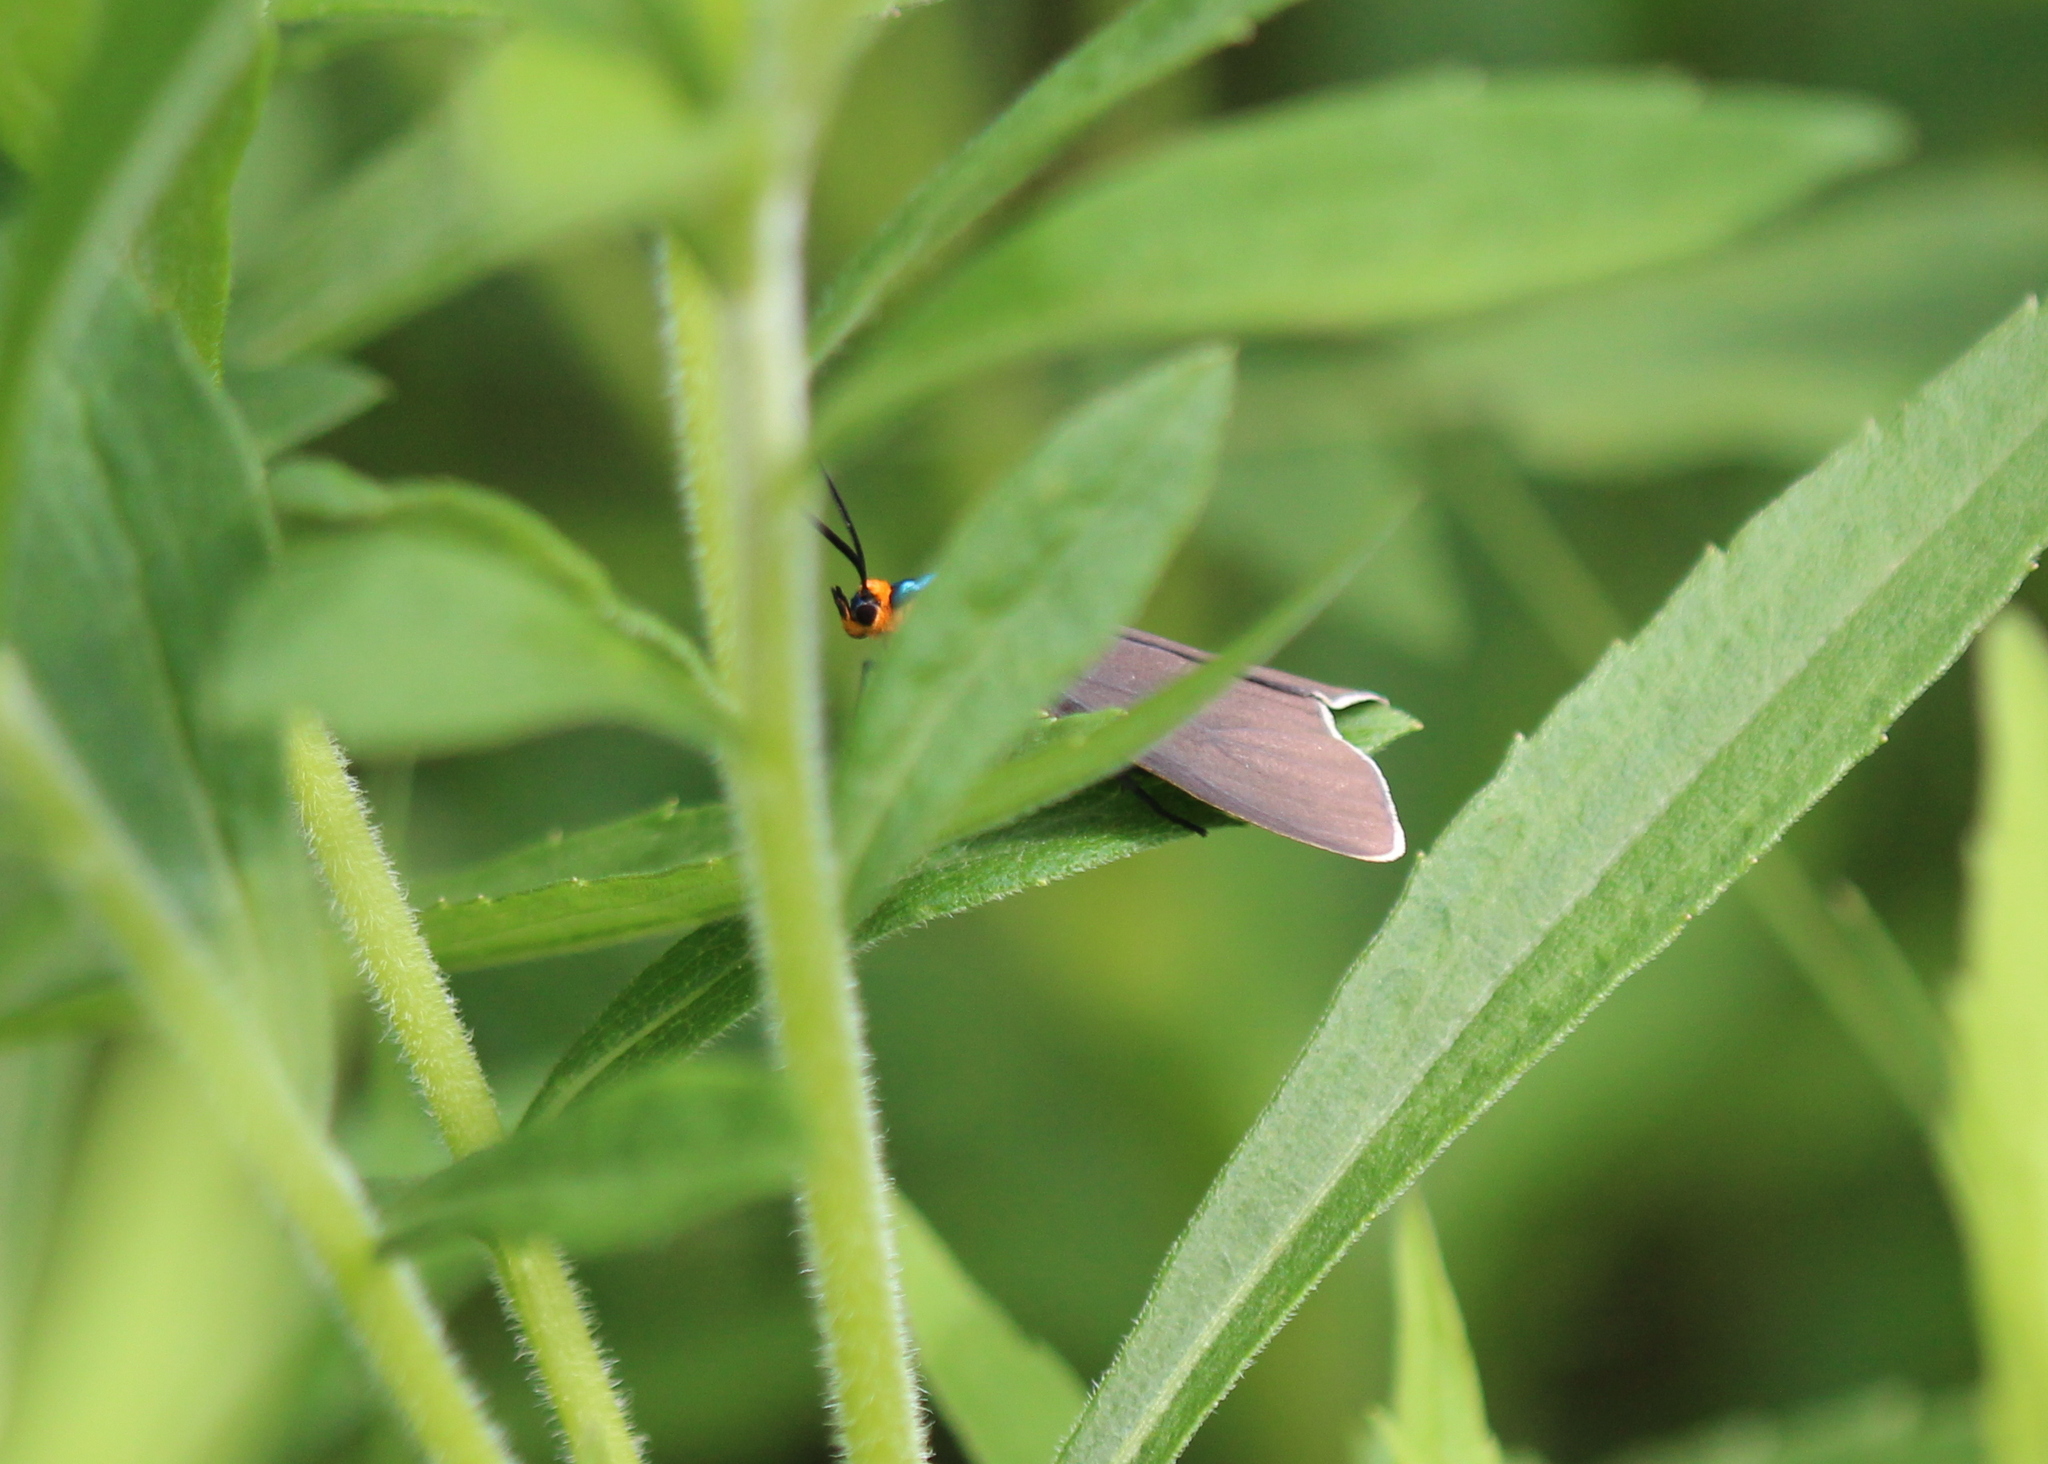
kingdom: Animalia
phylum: Arthropoda
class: Insecta
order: Lepidoptera
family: Erebidae
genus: Ctenucha
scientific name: Ctenucha virginica
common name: Virginia ctenucha moth
